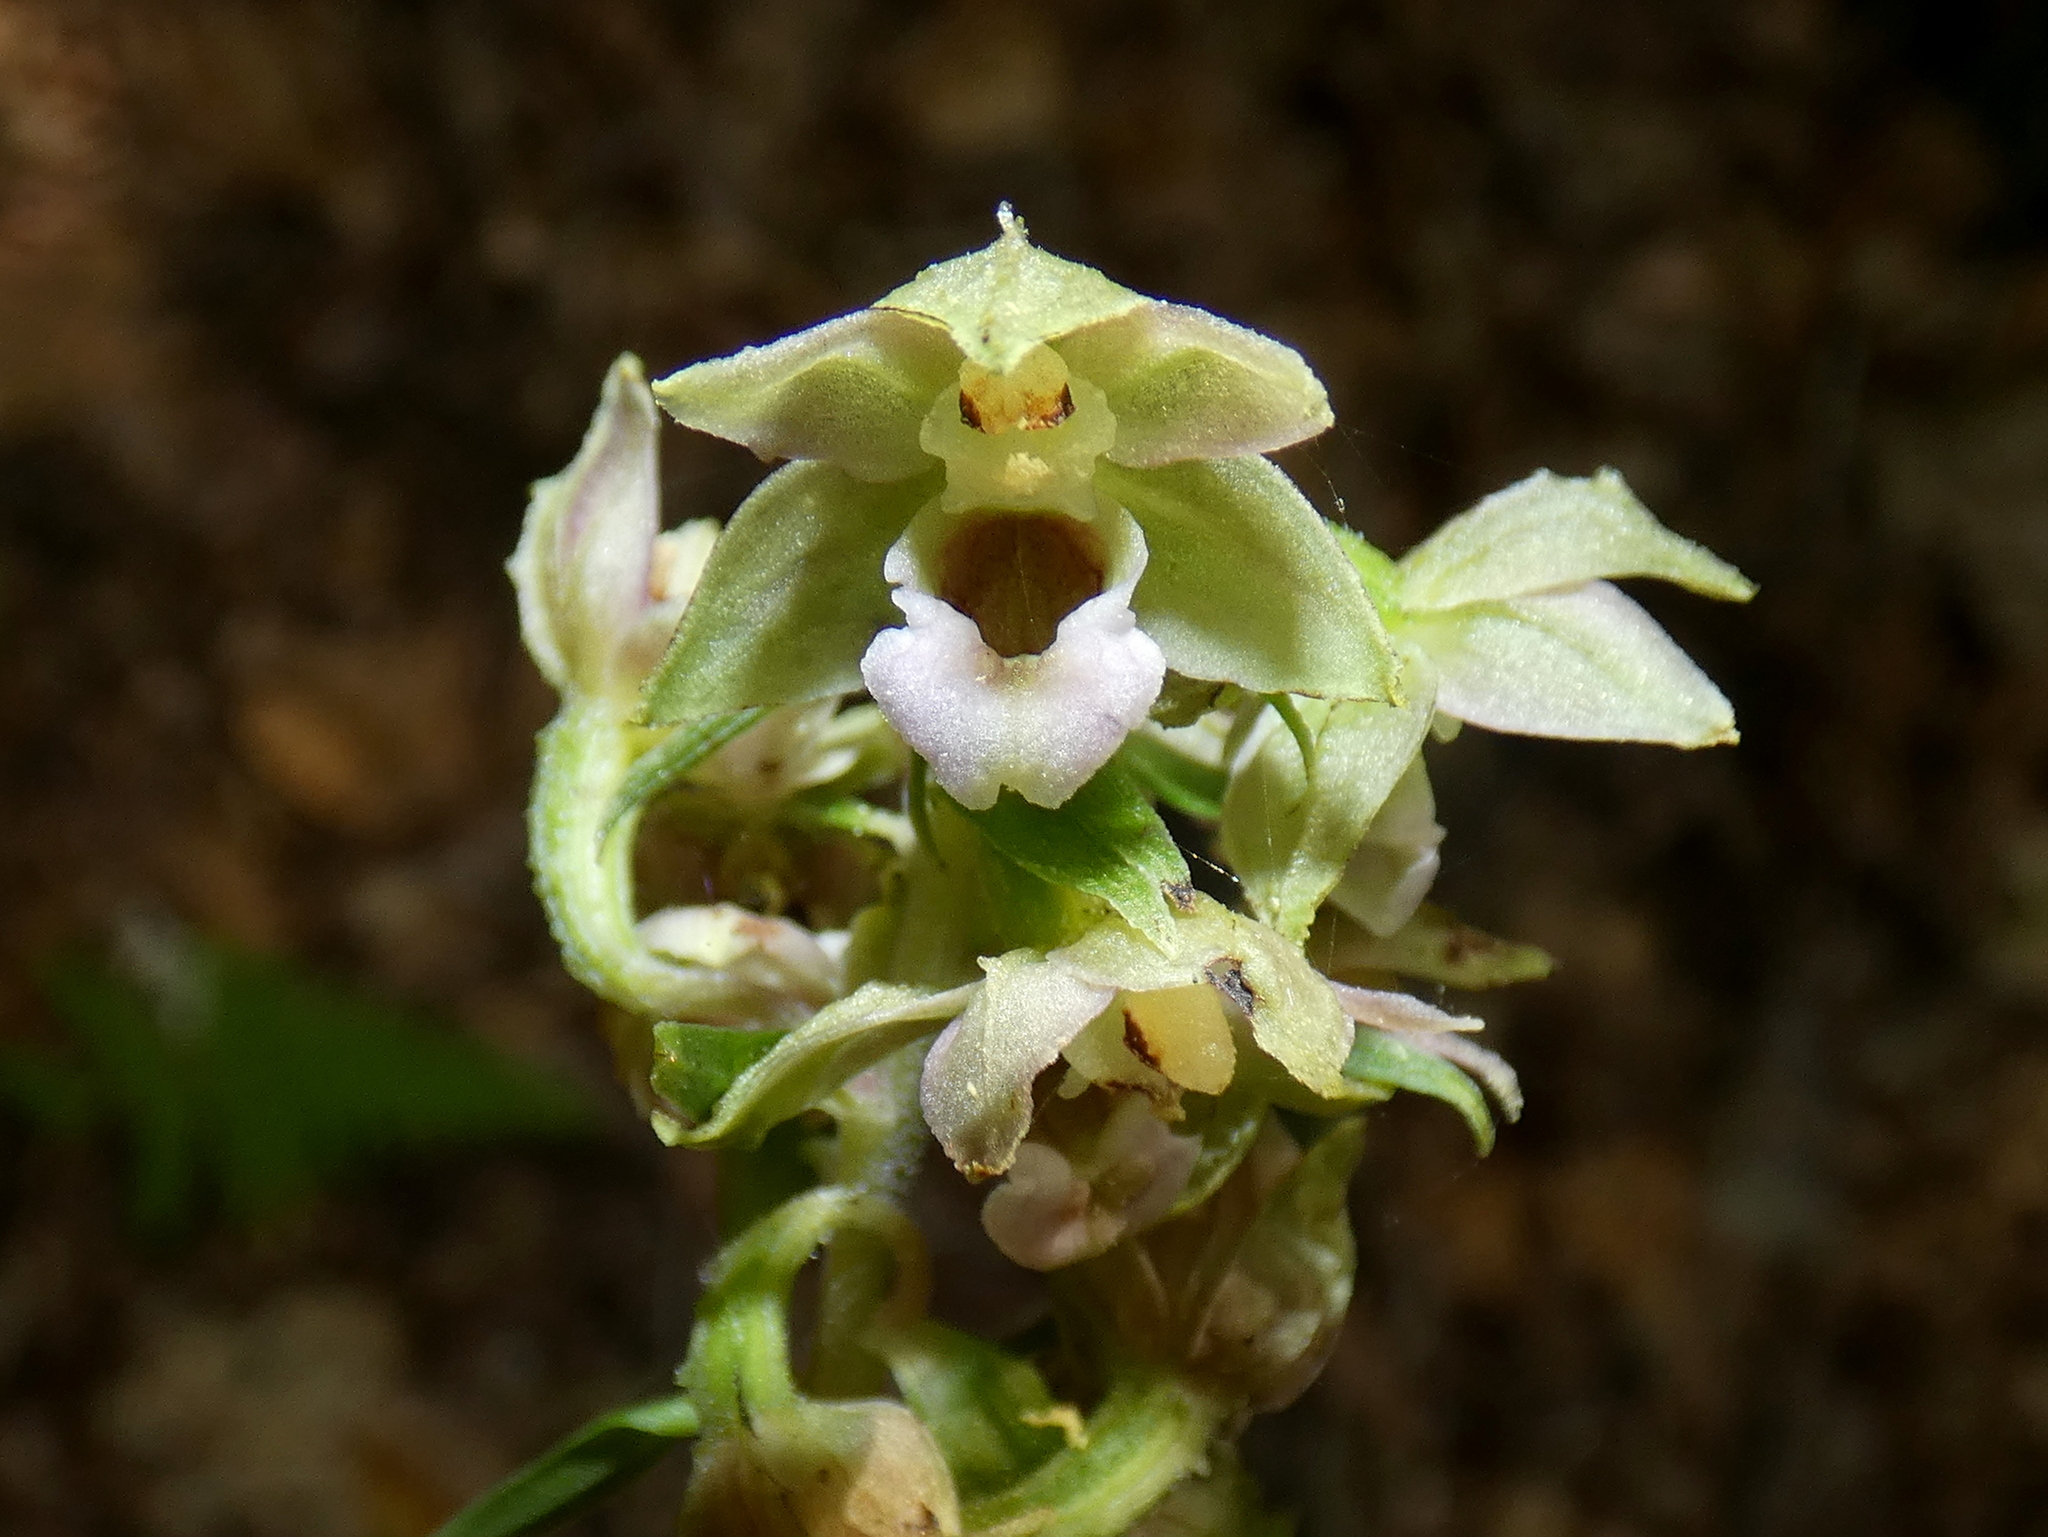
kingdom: Plantae
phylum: Tracheophyta
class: Liliopsida
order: Asparagales
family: Orchidaceae
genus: Epipactis
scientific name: Epipactis helleborine
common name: Broad-leaved helleborine
